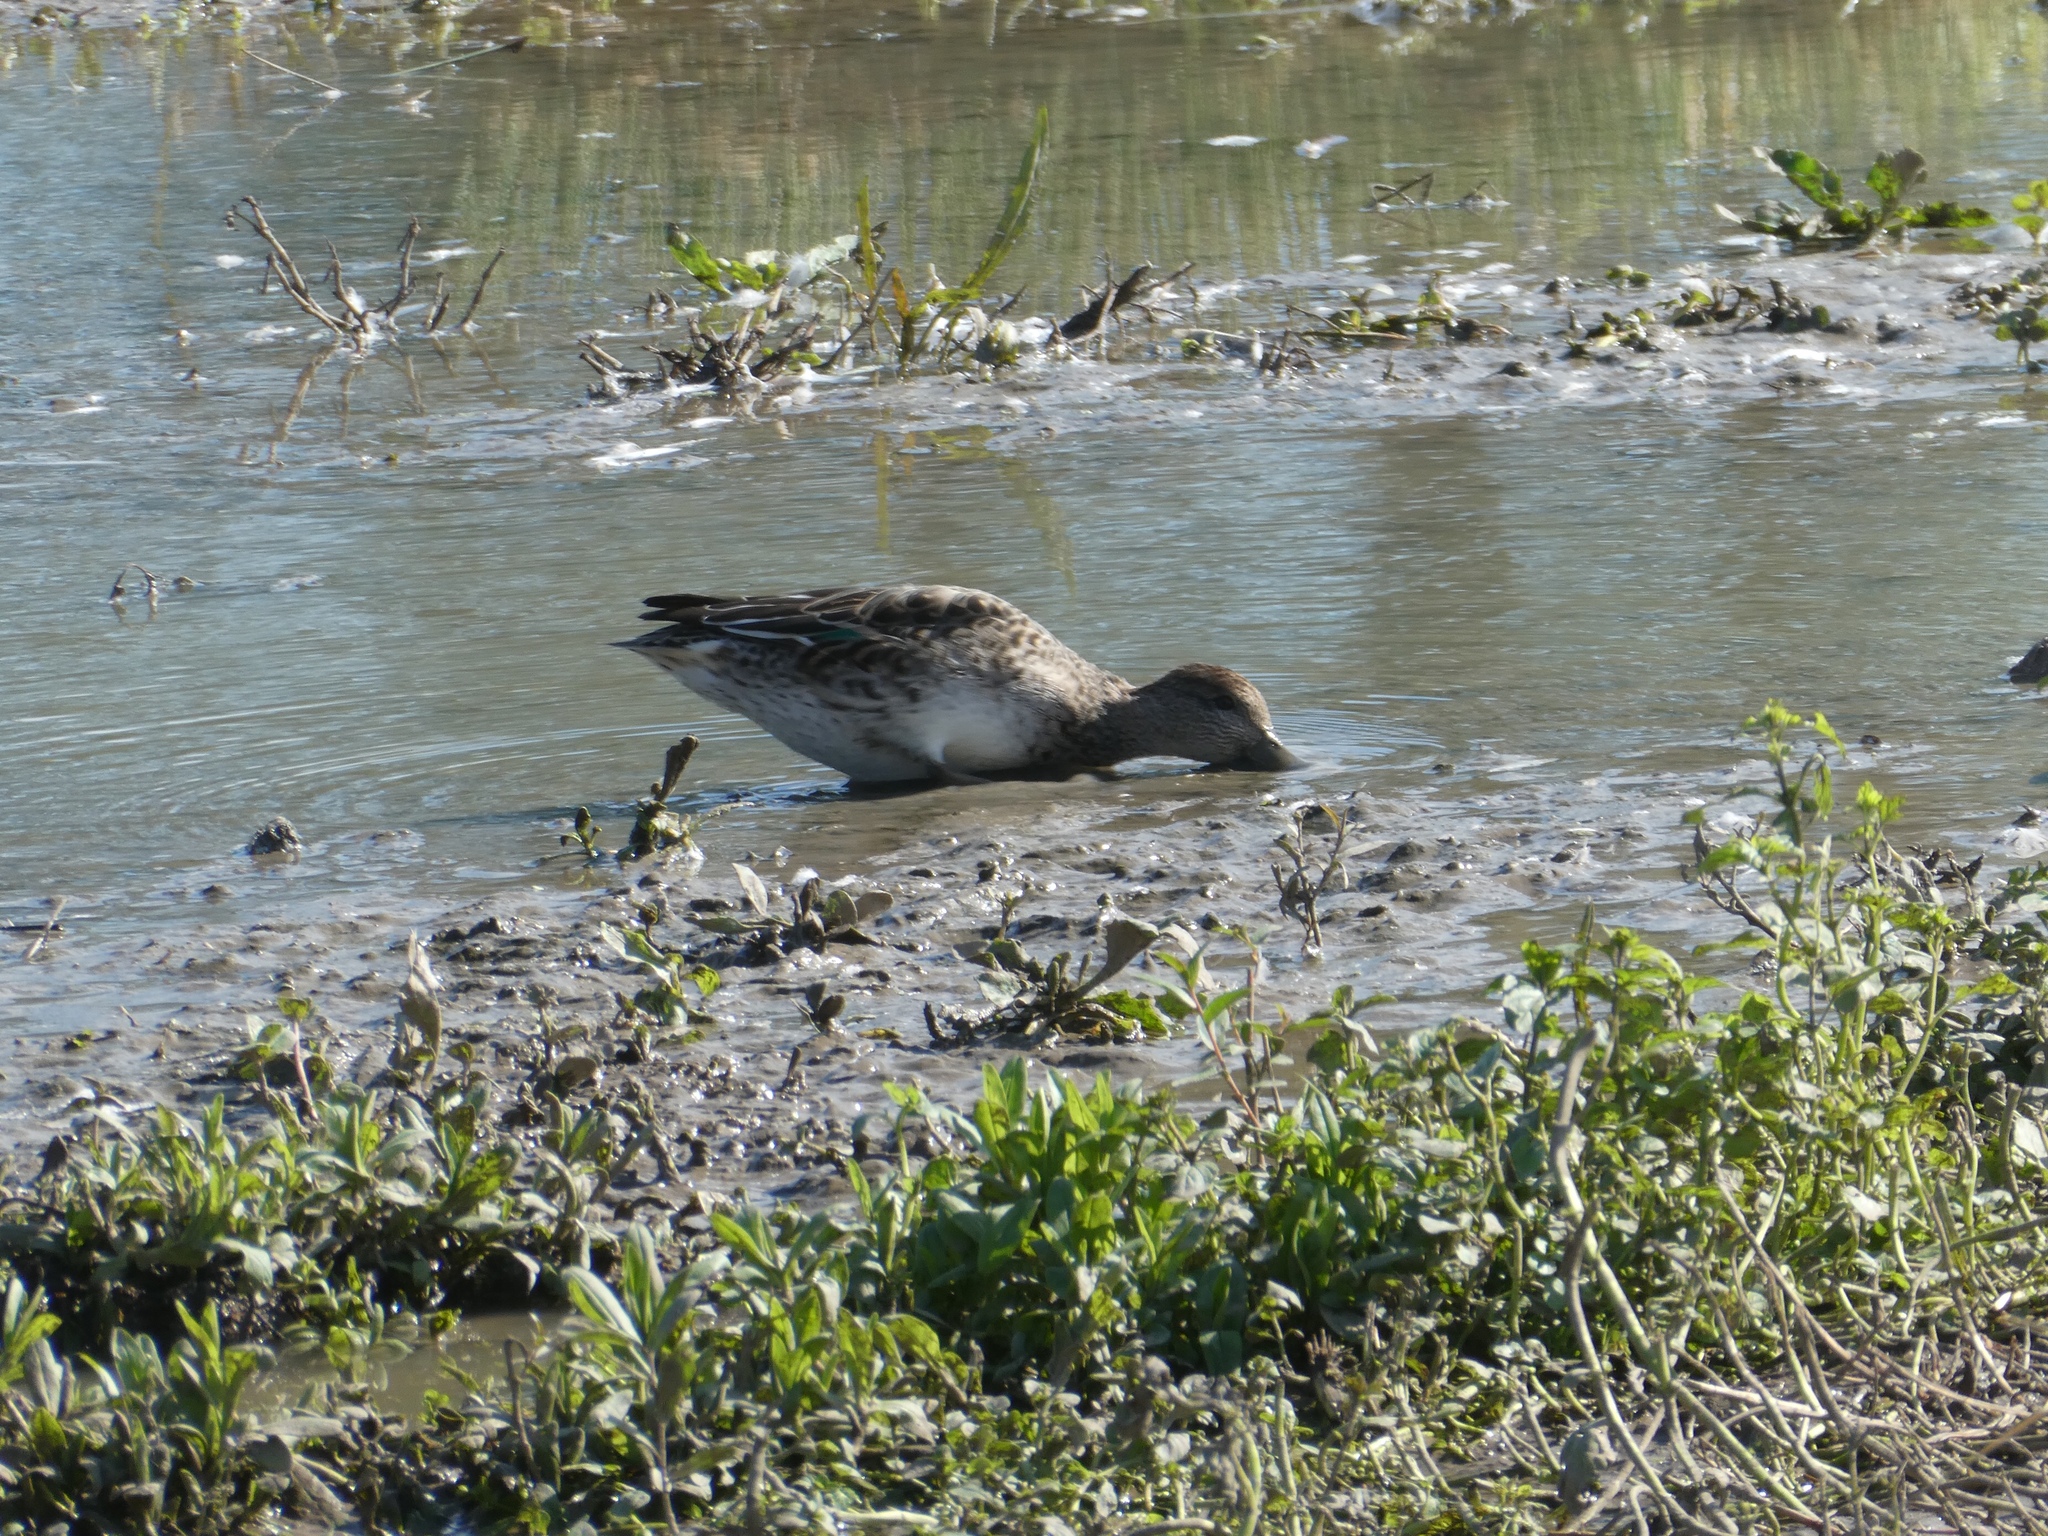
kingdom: Animalia
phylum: Chordata
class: Aves
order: Anseriformes
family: Anatidae
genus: Anas
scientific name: Anas crecca
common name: Eurasian teal
